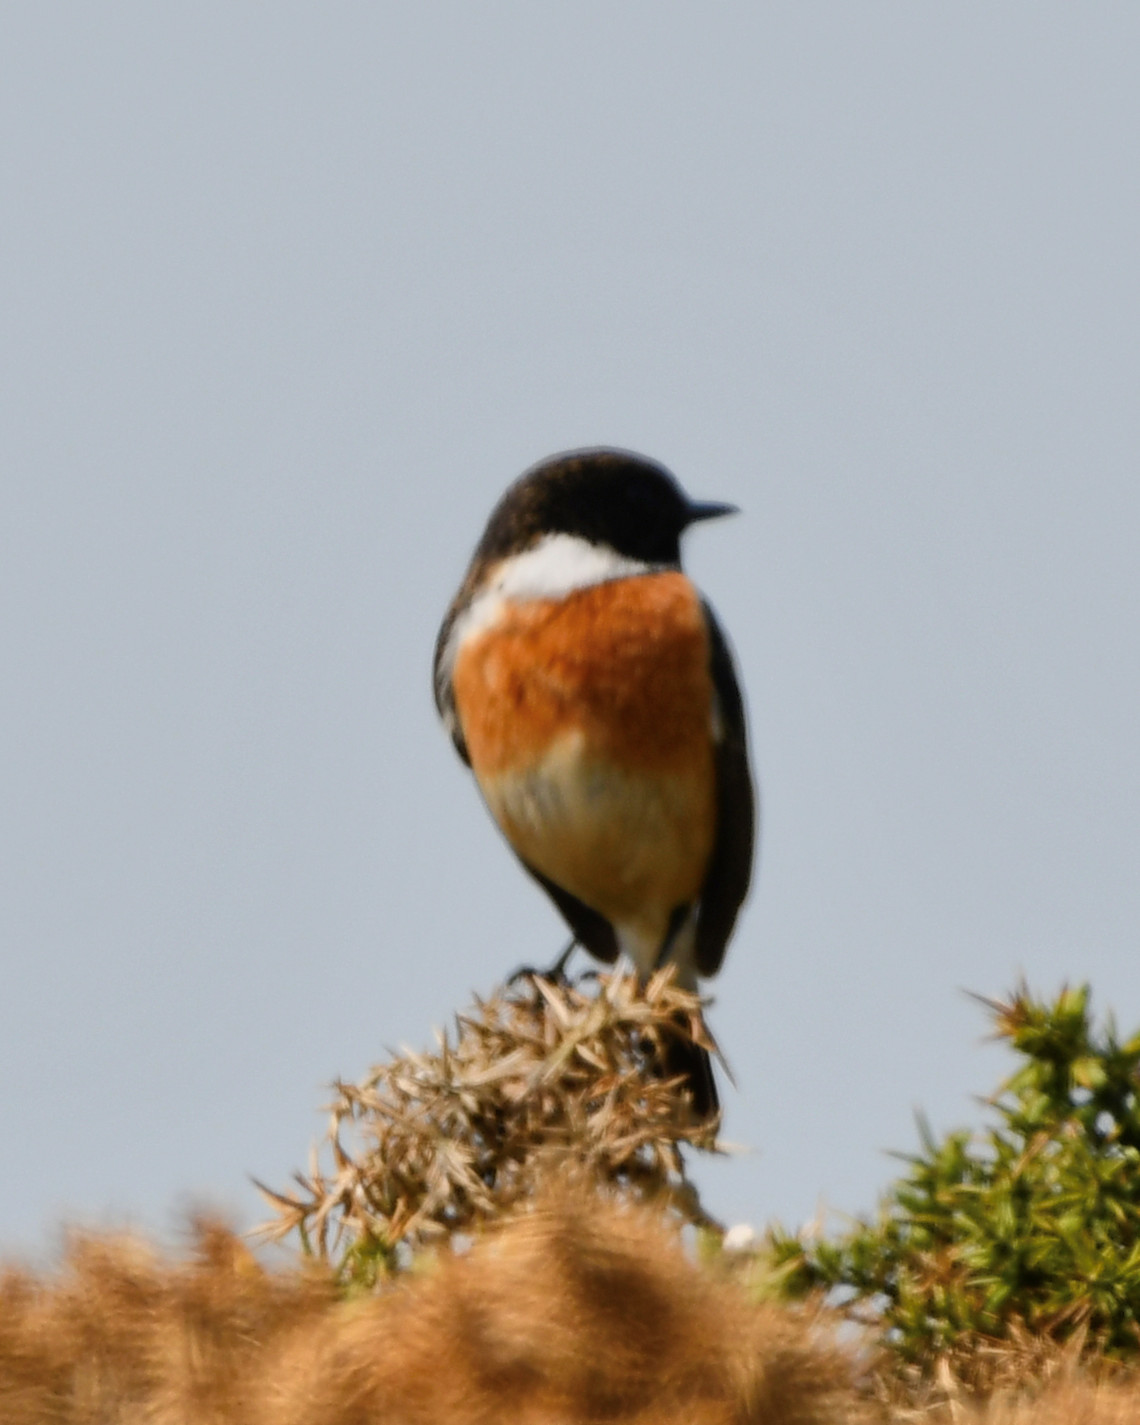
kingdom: Animalia
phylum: Chordata
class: Aves
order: Passeriformes
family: Muscicapidae
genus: Saxicola
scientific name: Saxicola rubicola
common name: European stonechat
